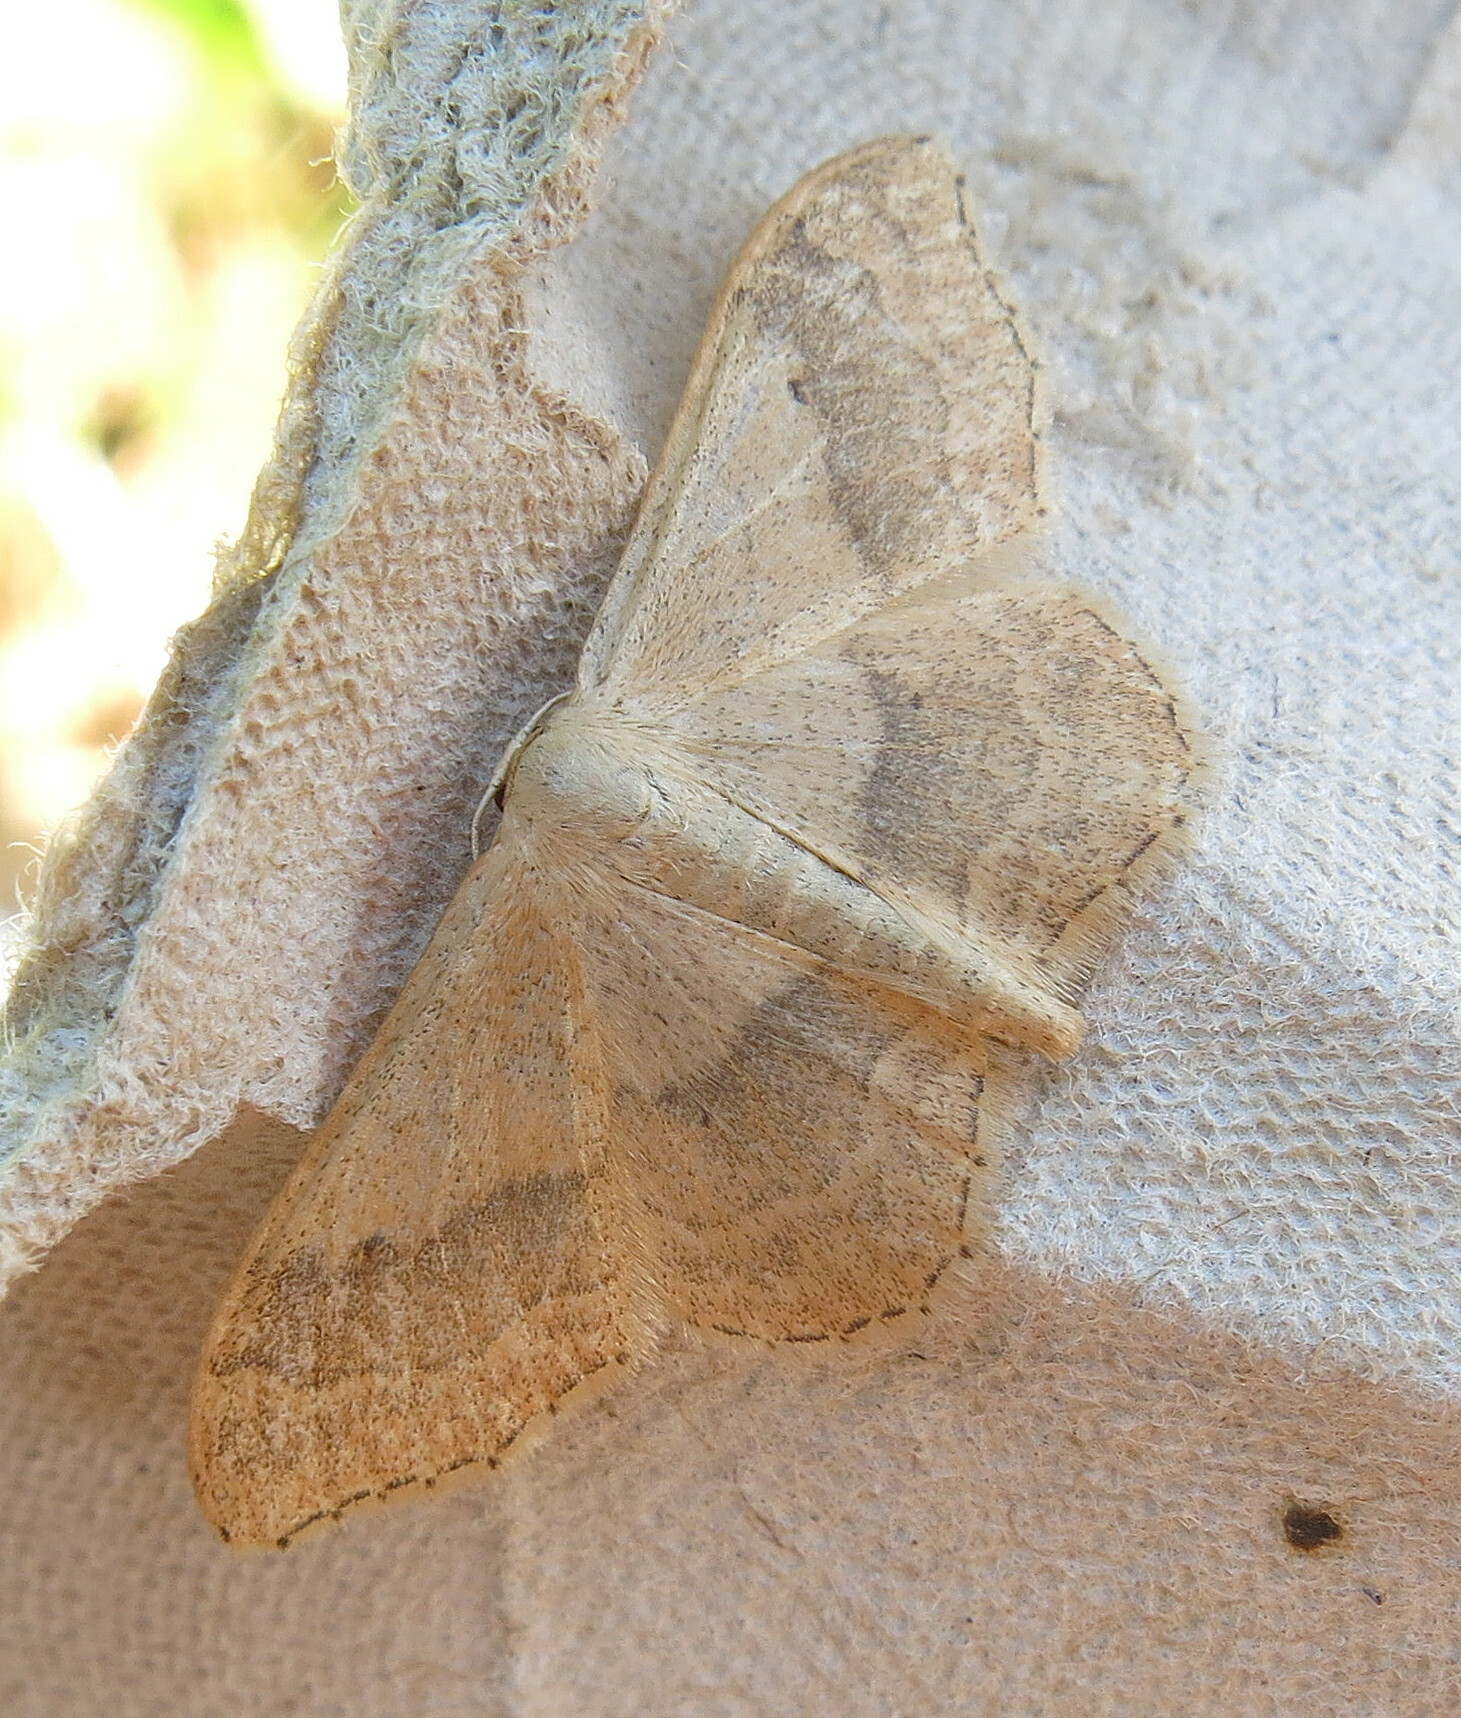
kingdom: Animalia
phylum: Arthropoda
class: Insecta
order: Lepidoptera
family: Geometridae
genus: Idaea
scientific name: Idaea aversata
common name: Riband wave
